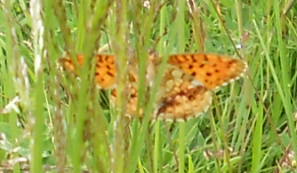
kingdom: Animalia
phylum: Arthropoda
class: Insecta
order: Lepidoptera
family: Nymphalidae
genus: Brenthis
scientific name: Brenthis ino
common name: Lesser marbled fritillary
